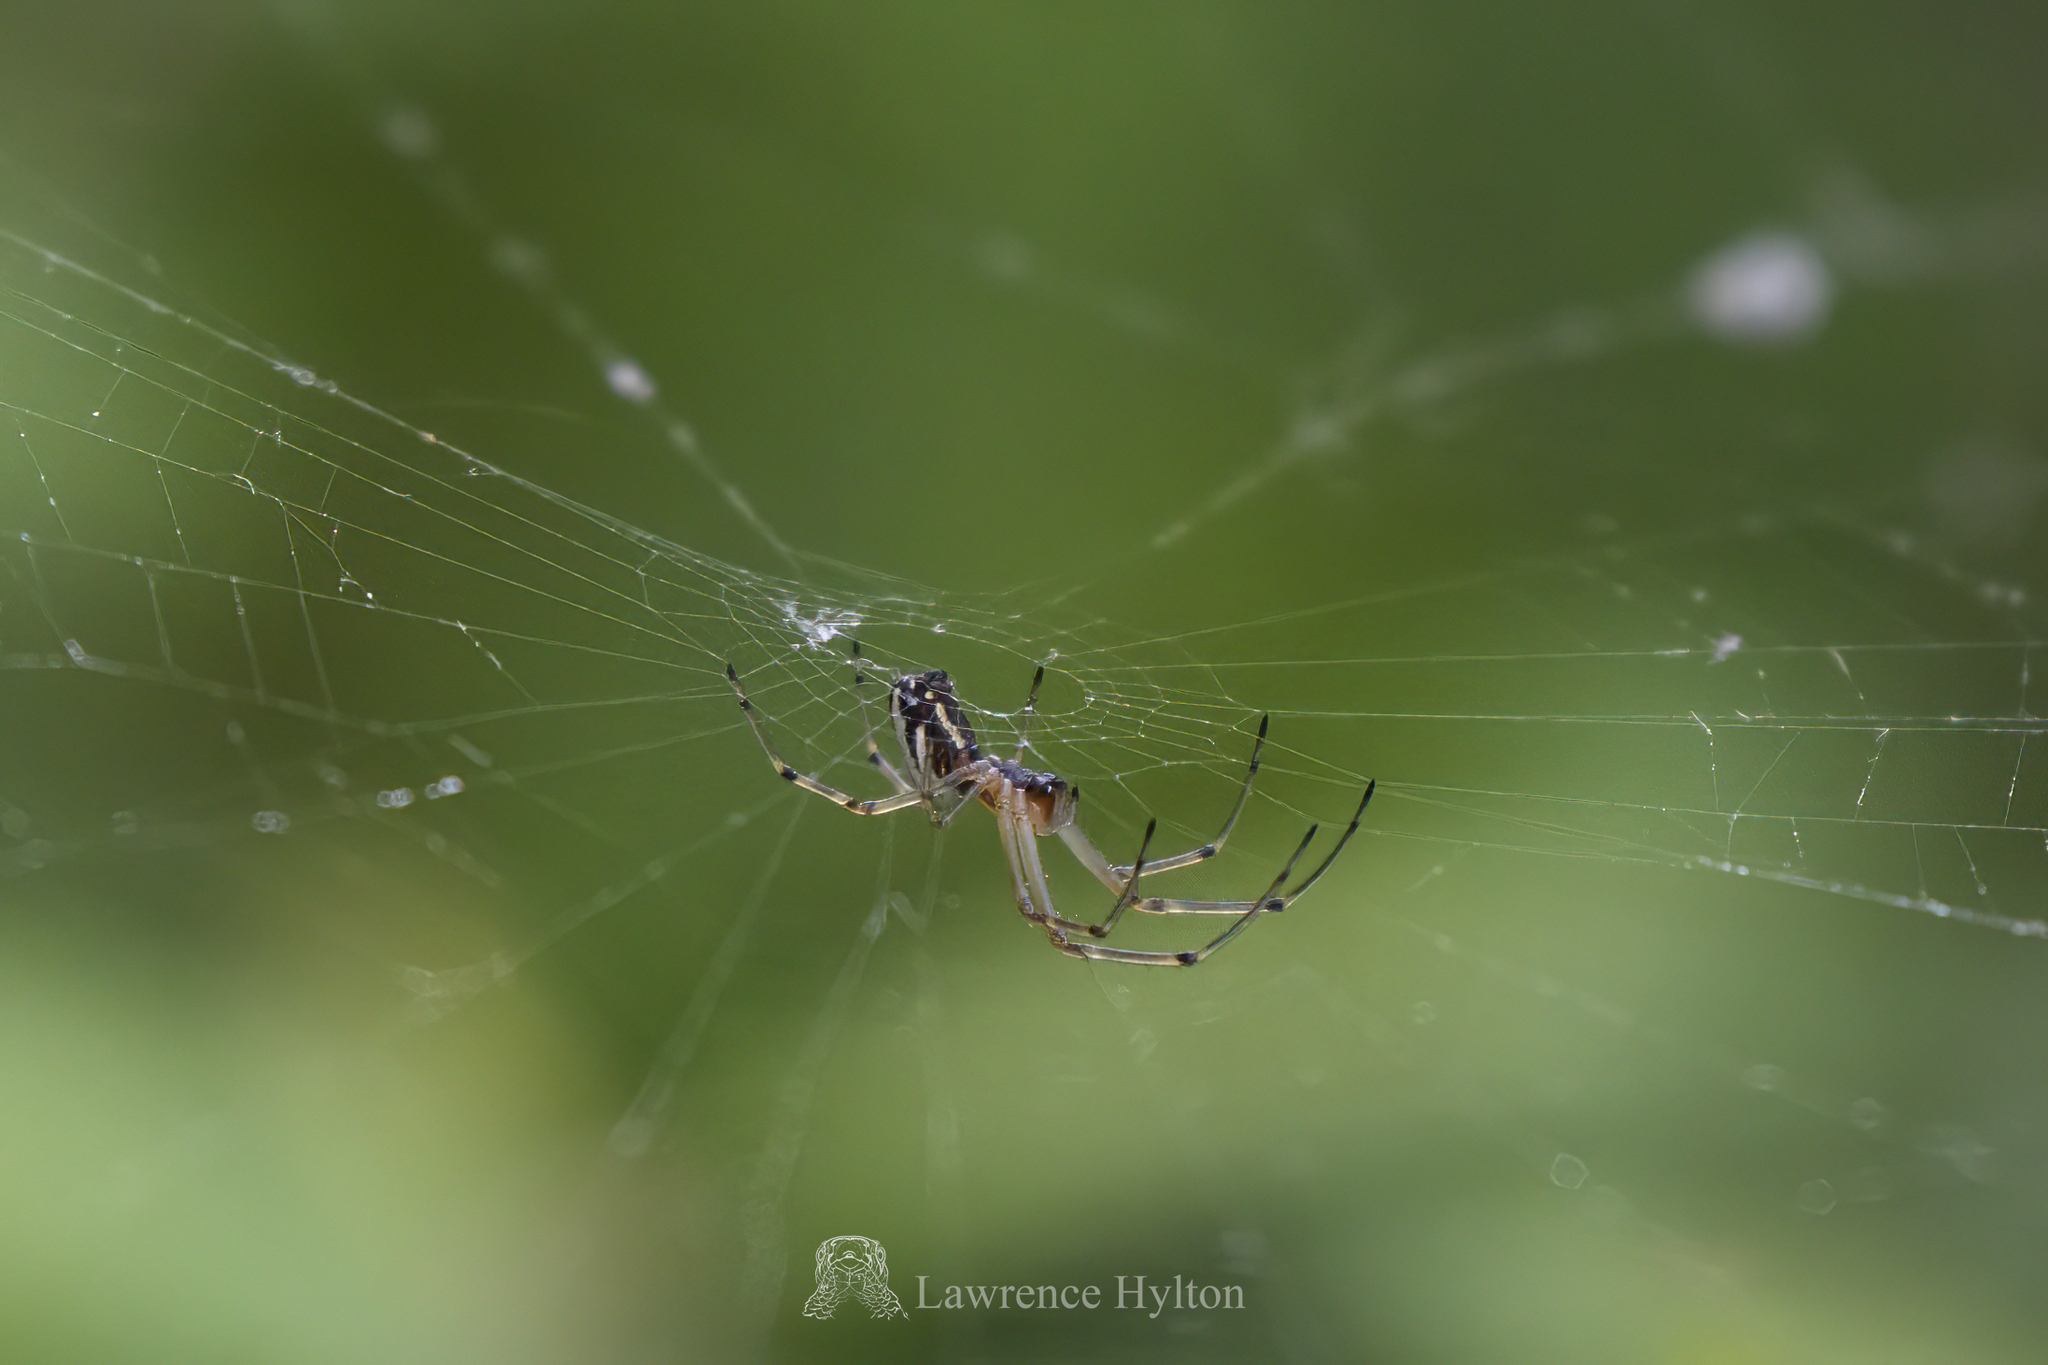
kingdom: Animalia
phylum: Arthropoda
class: Arachnida
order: Araneae
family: Tetragnathidae
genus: Leucauge
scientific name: Leucauge celebesiana
